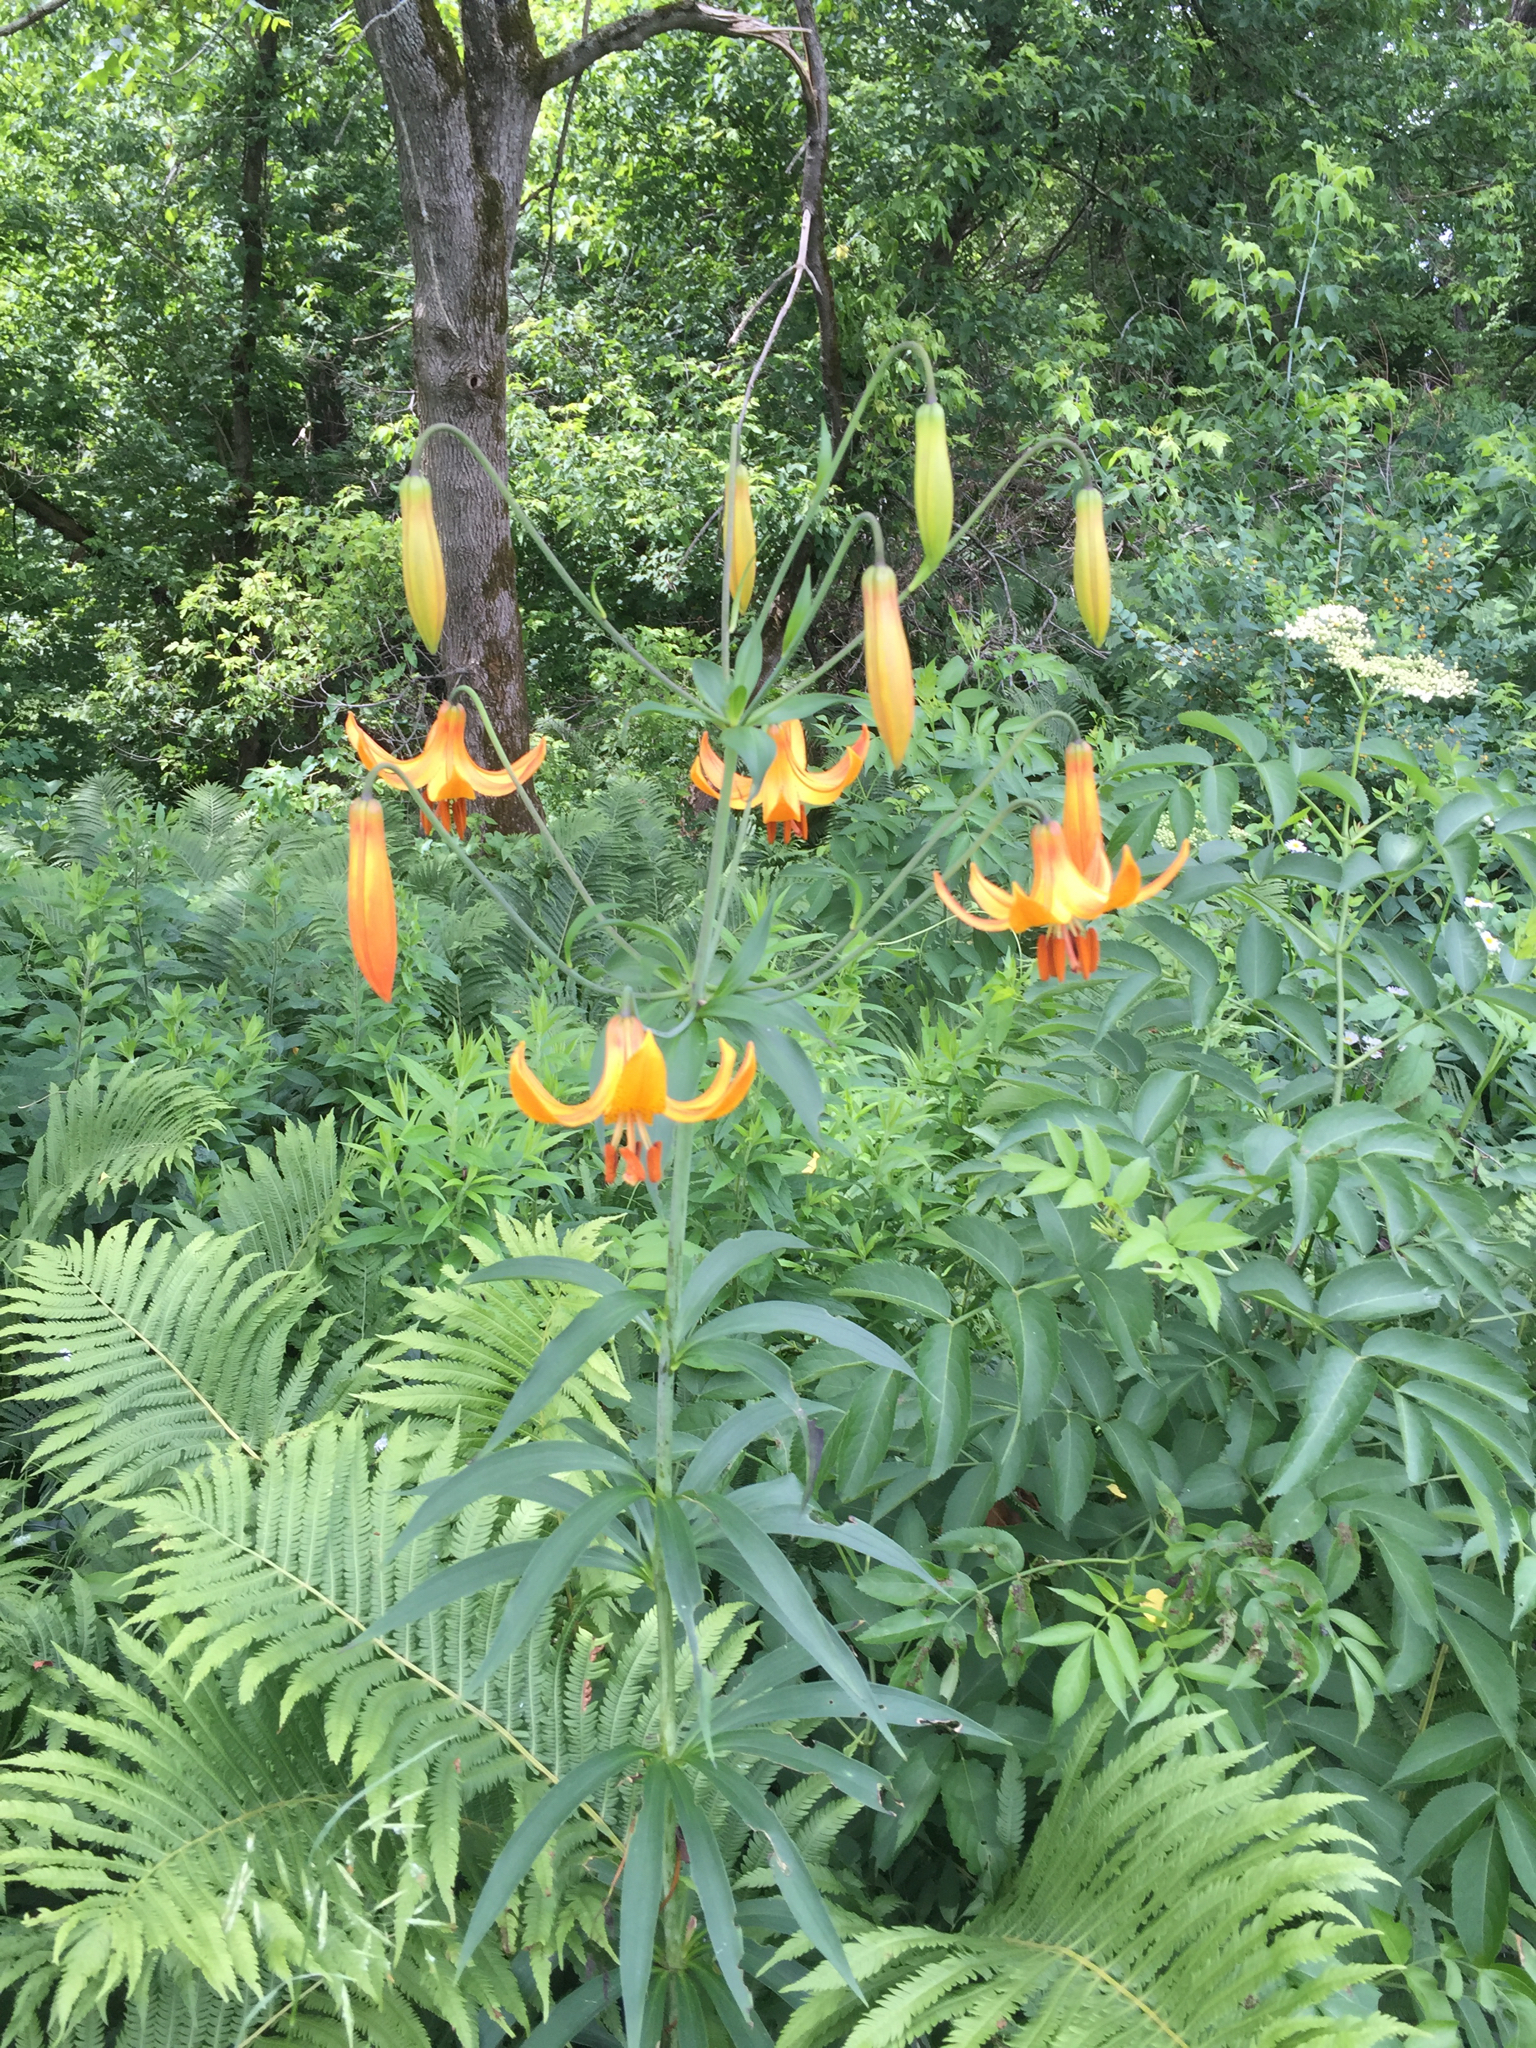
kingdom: Plantae
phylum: Tracheophyta
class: Liliopsida
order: Liliales
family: Liliaceae
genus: Lilium
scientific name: Lilium canadense
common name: Canada lily
